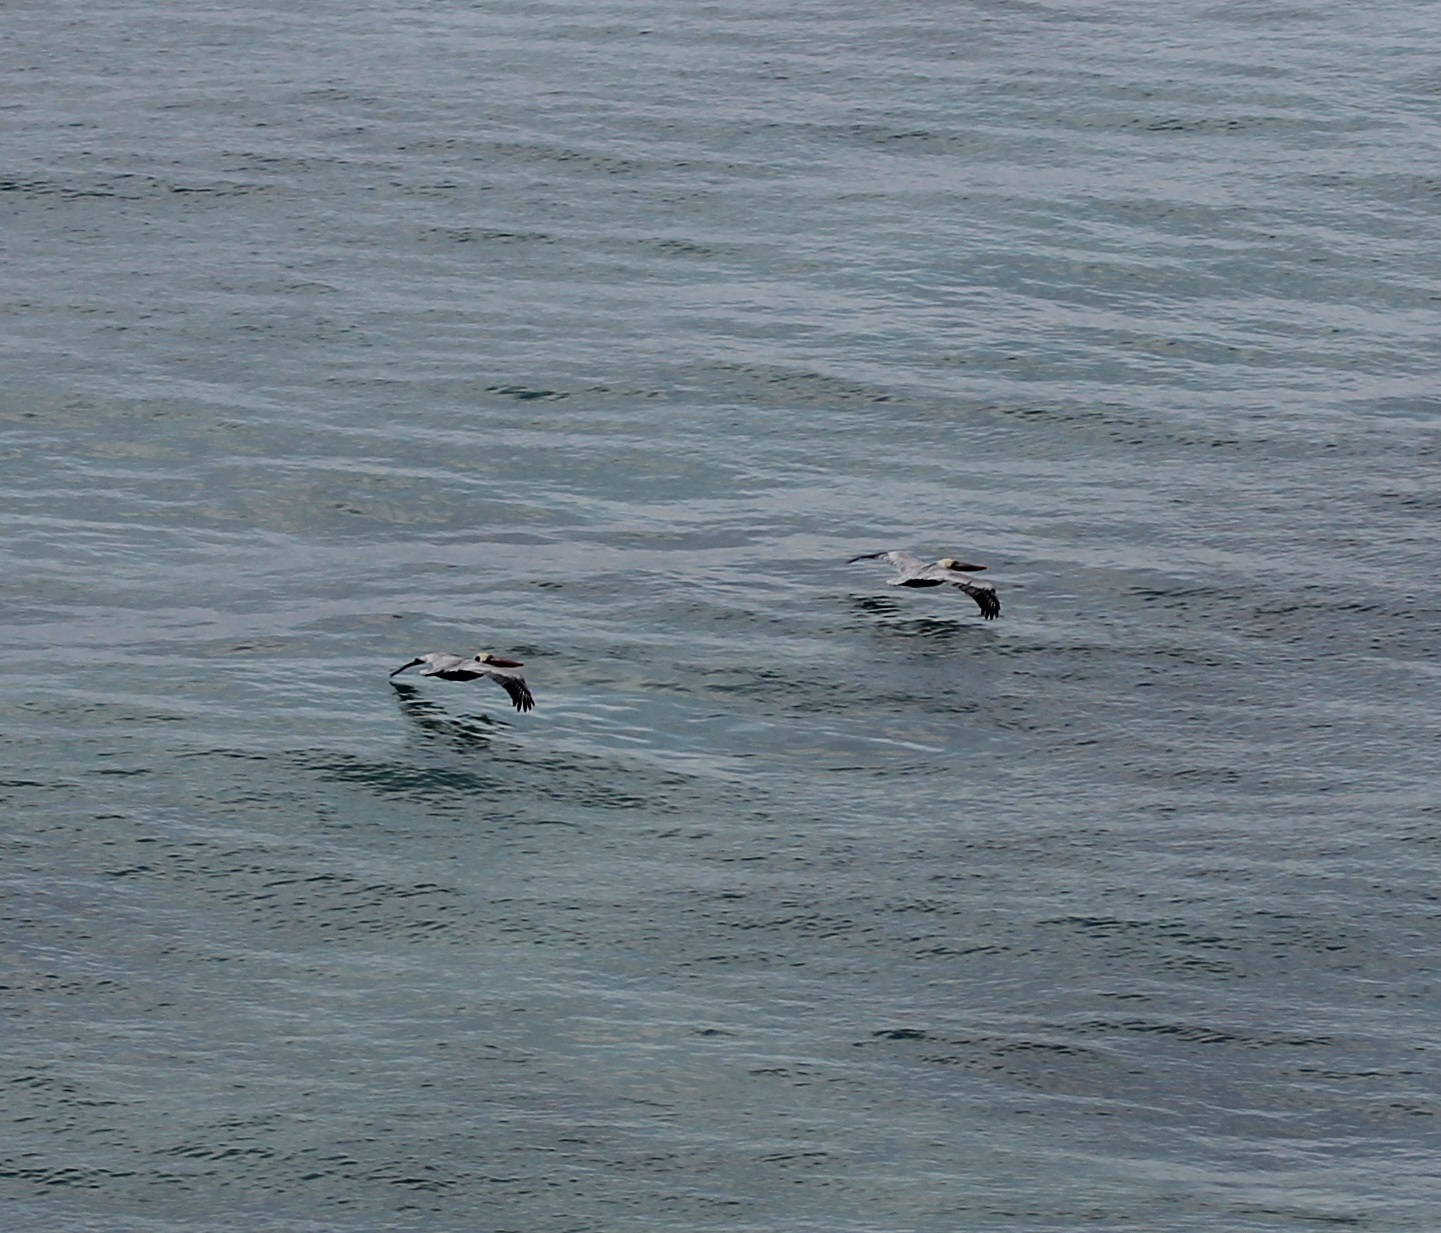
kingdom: Animalia
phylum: Chordata
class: Aves
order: Pelecaniformes
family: Pelecanidae
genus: Pelecanus
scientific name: Pelecanus occidentalis
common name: Brown pelican
